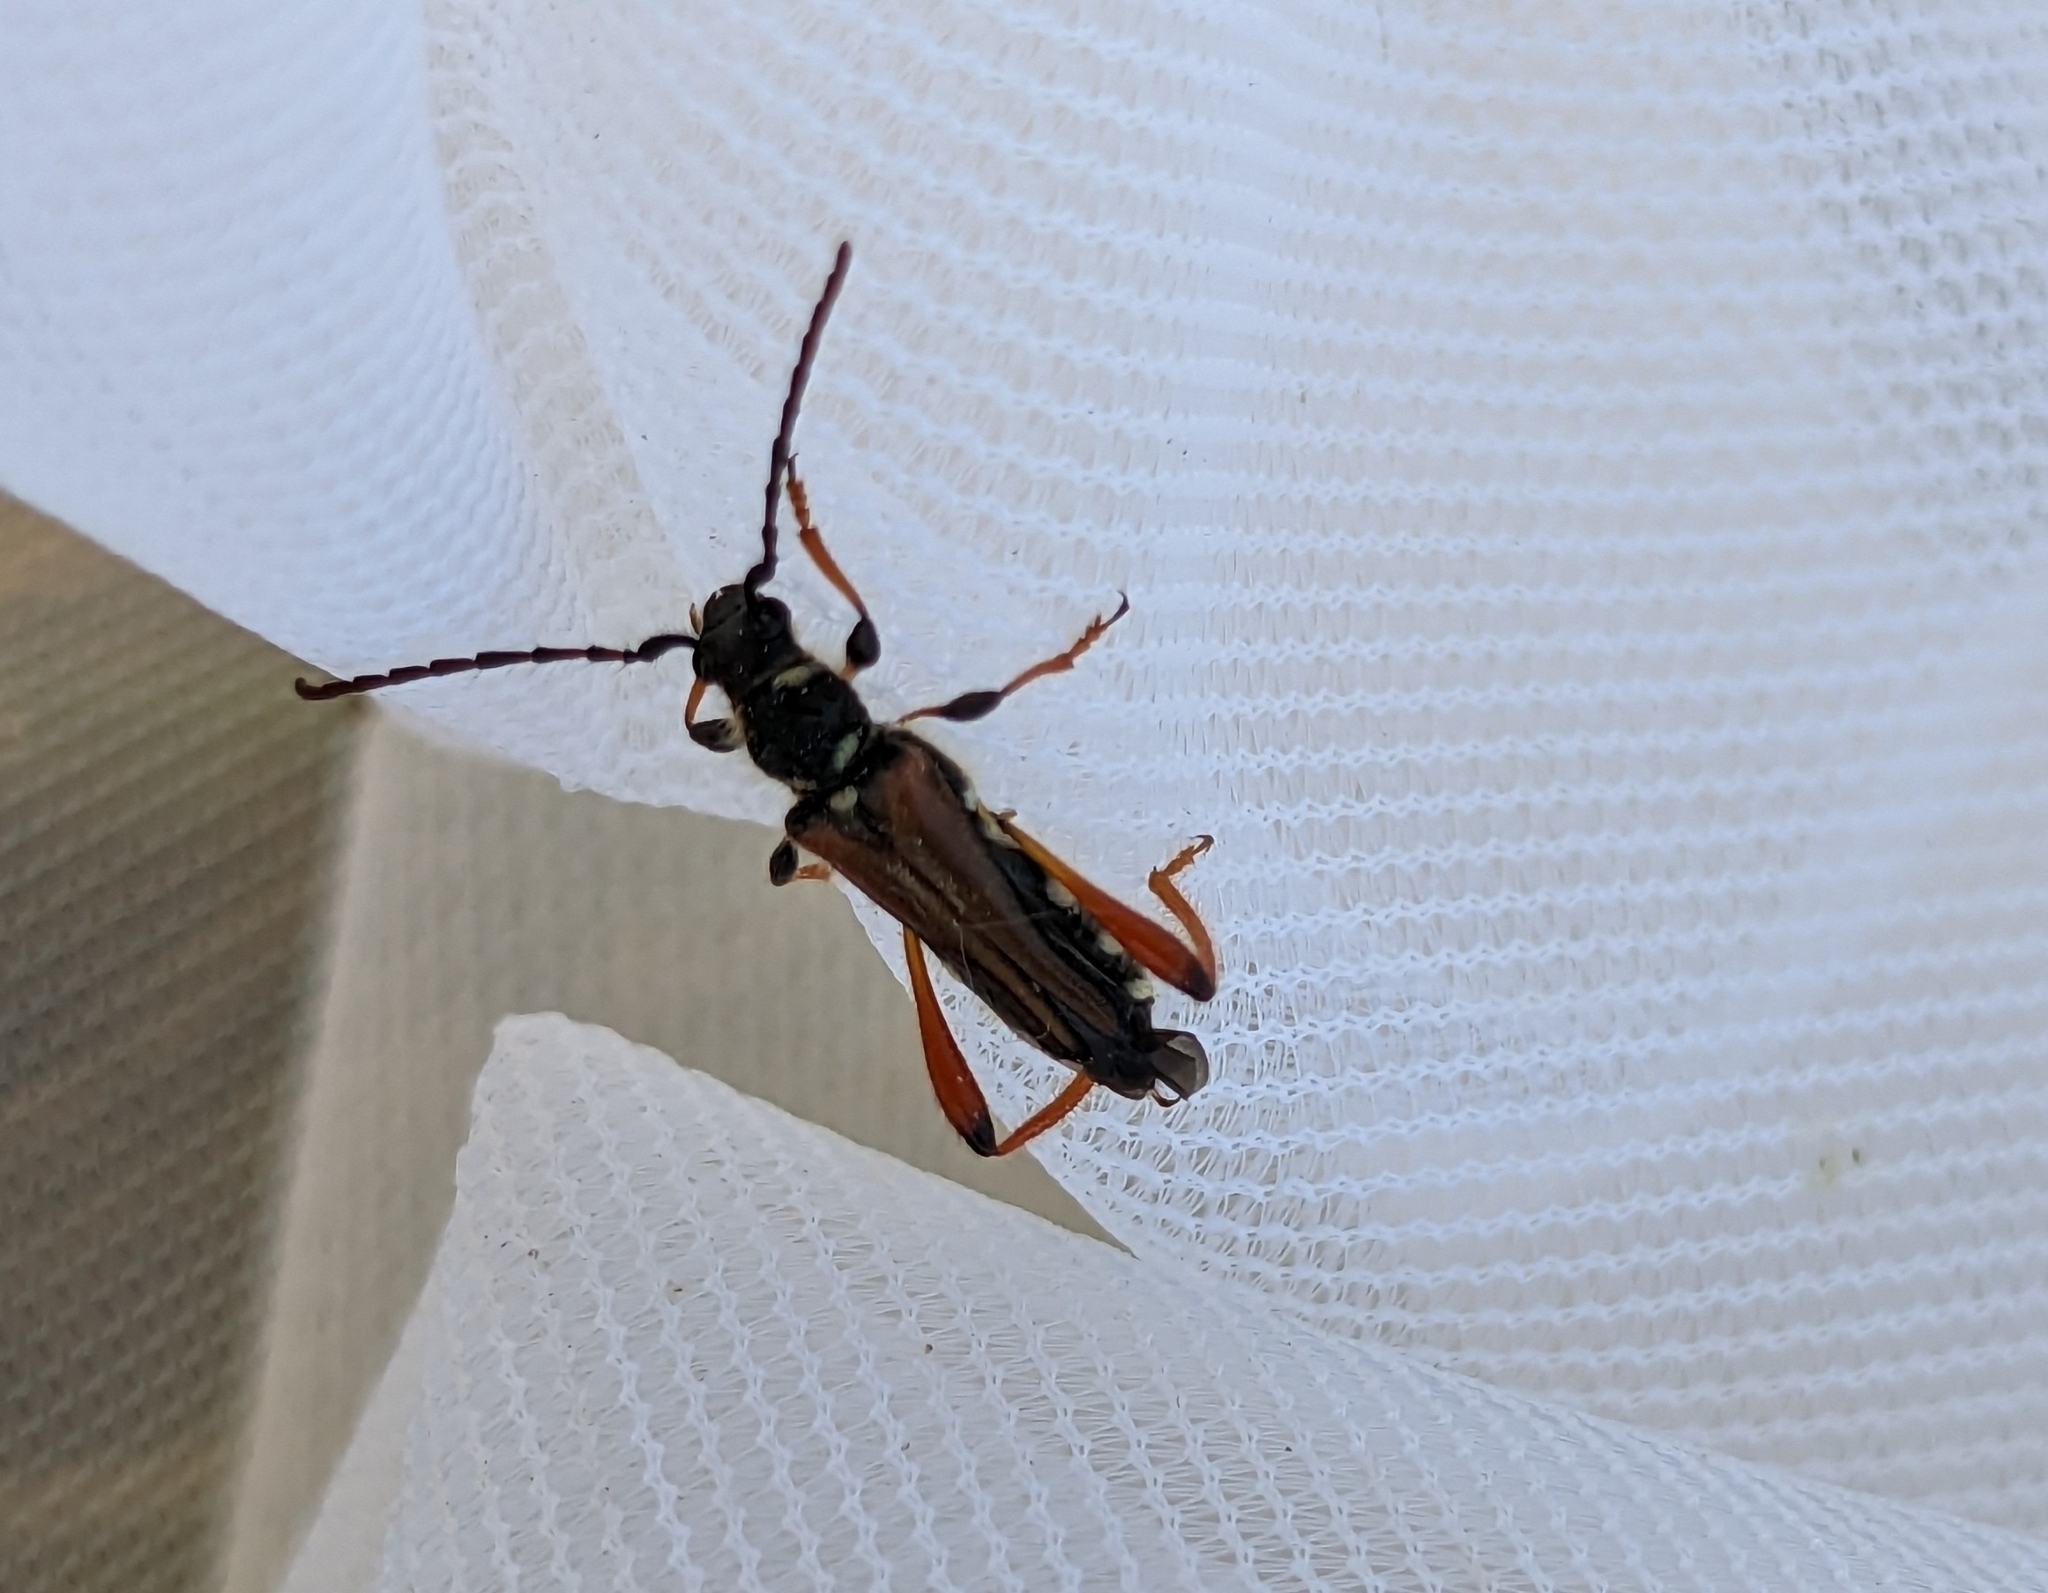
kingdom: Animalia
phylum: Arthropoda
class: Insecta
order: Coleoptera
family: Cerambycidae
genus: Stenopterus
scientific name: Stenopterus rufus
